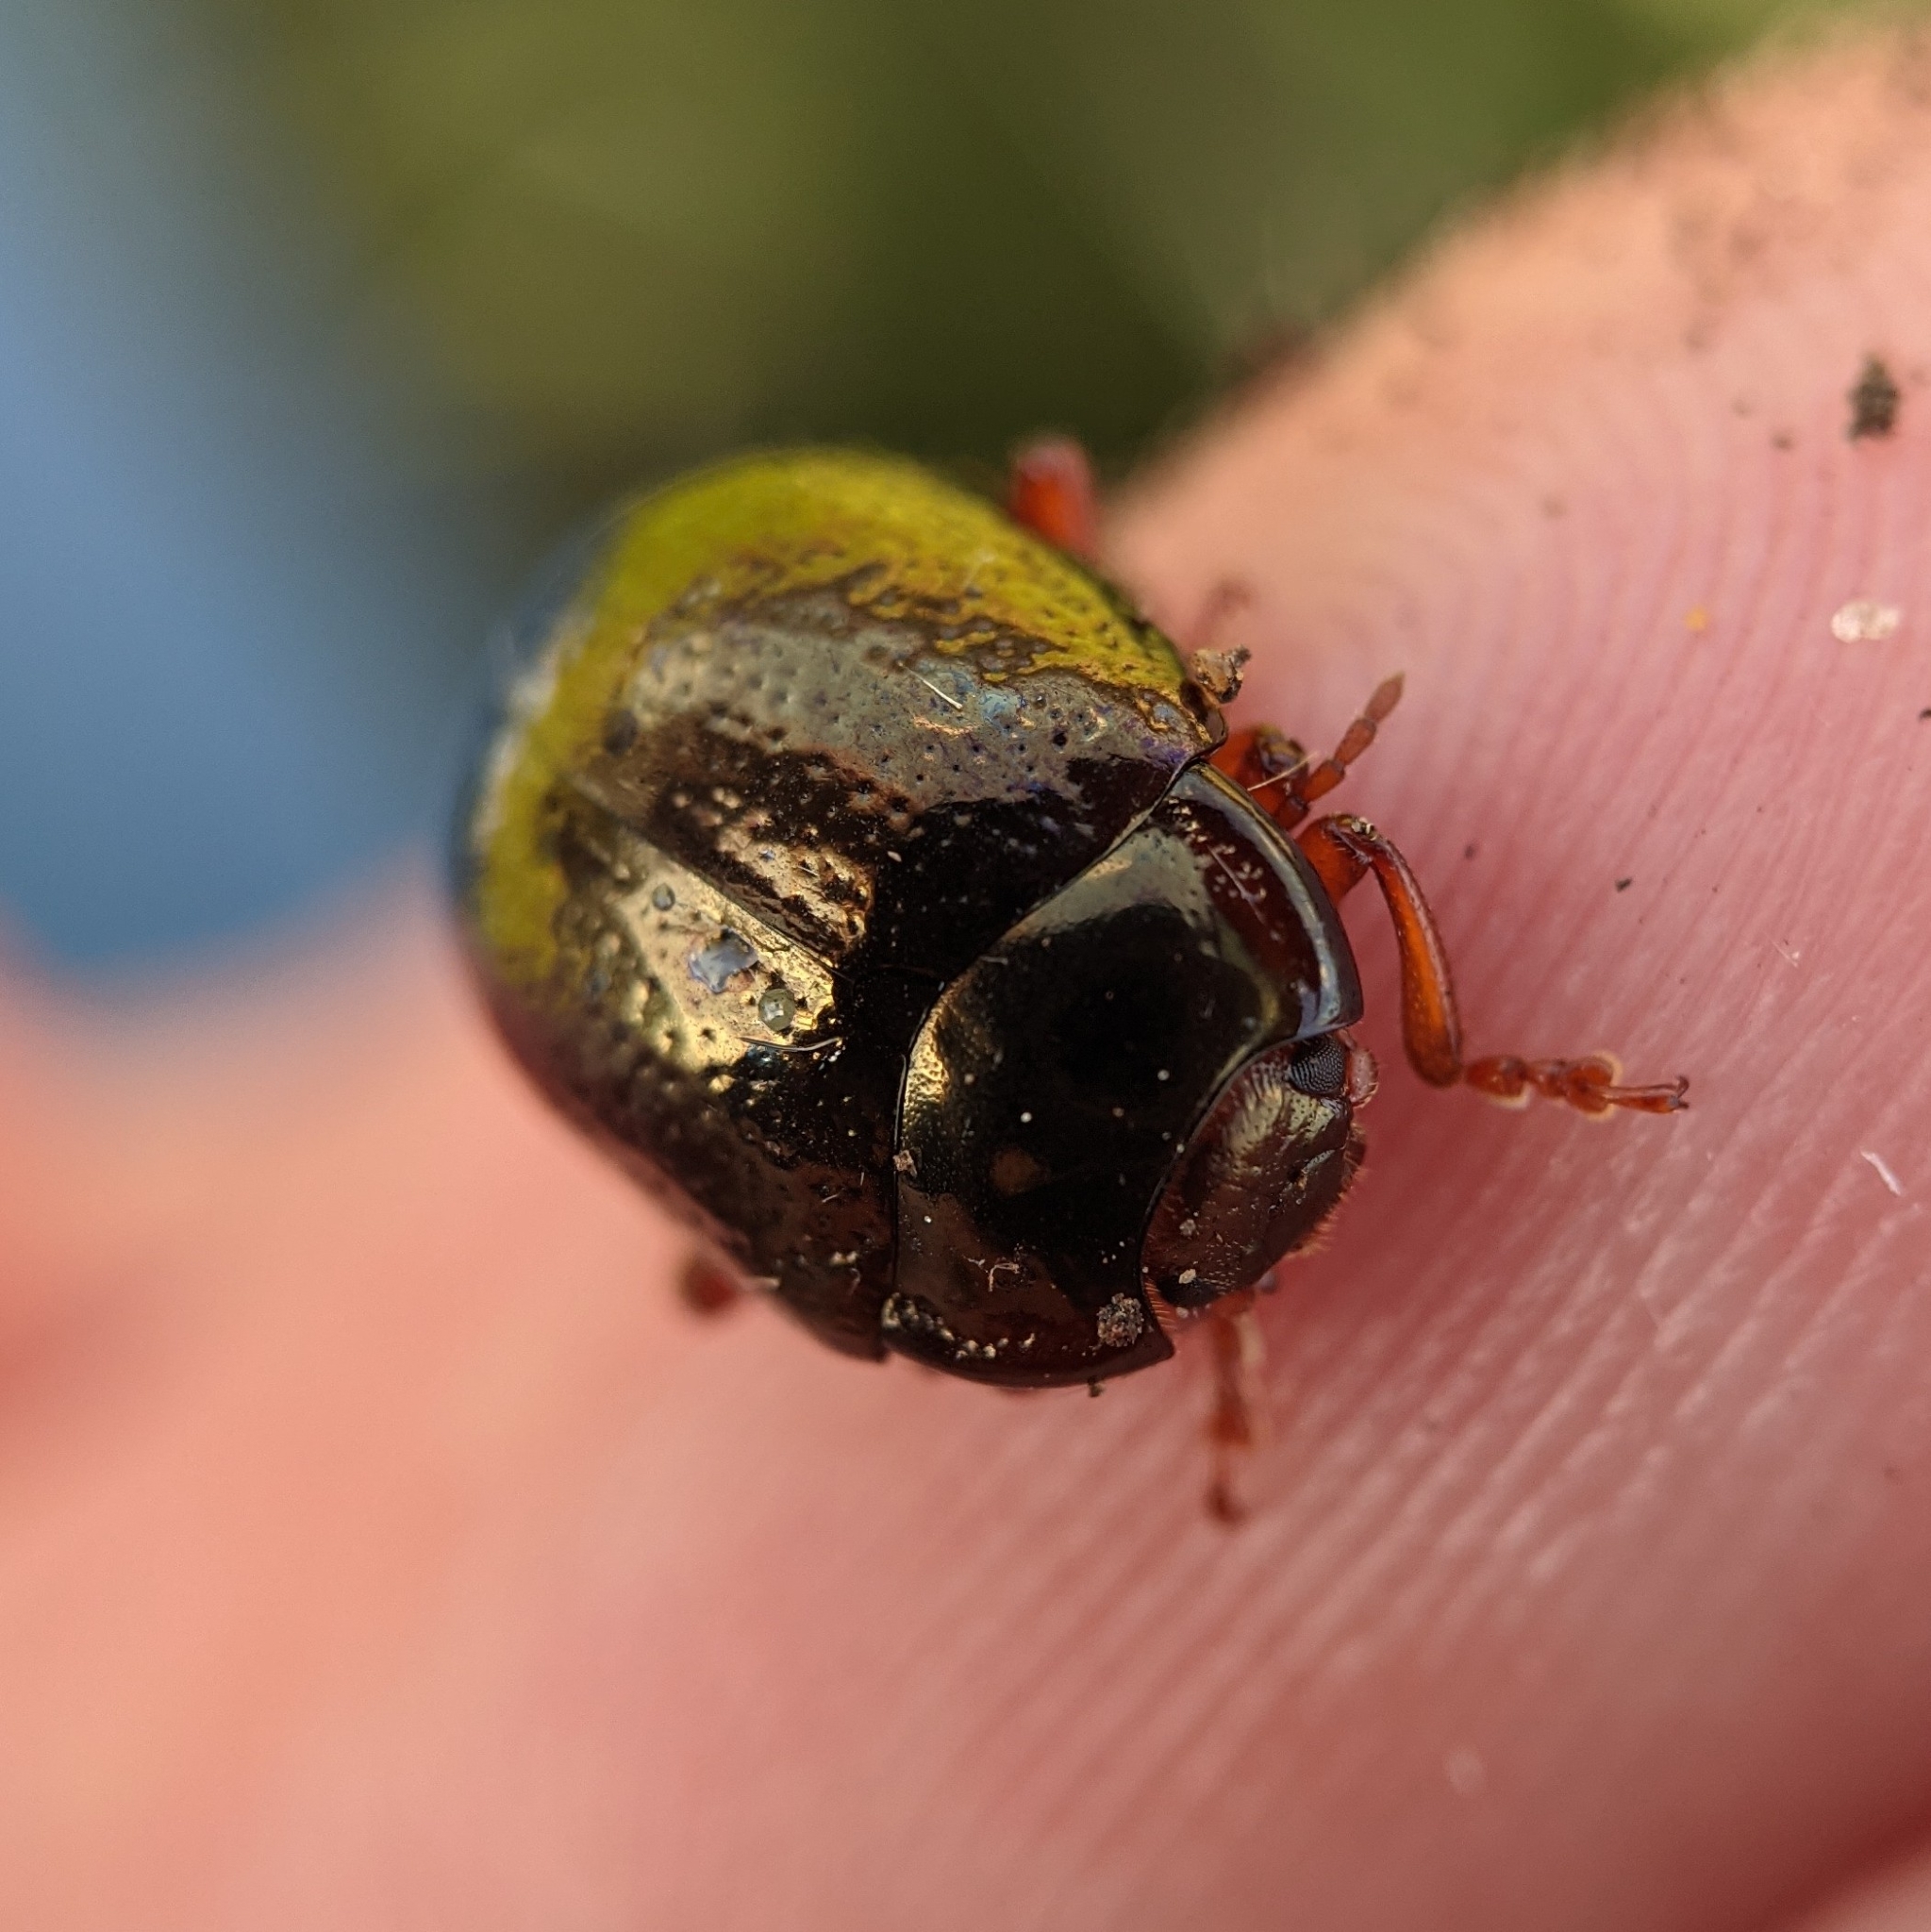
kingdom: Animalia
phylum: Arthropoda
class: Insecta
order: Coleoptera
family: Chrysomelidae
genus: Chrysolina
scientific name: Chrysolina bankii
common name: Leaf beetle
